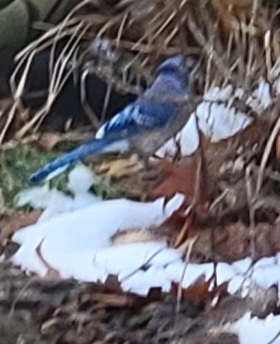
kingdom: Animalia
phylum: Chordata
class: Aves
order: Passeriformes
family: Corvidae
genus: Cyanocitta
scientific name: Cyanocitta cristata
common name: Blue jay
